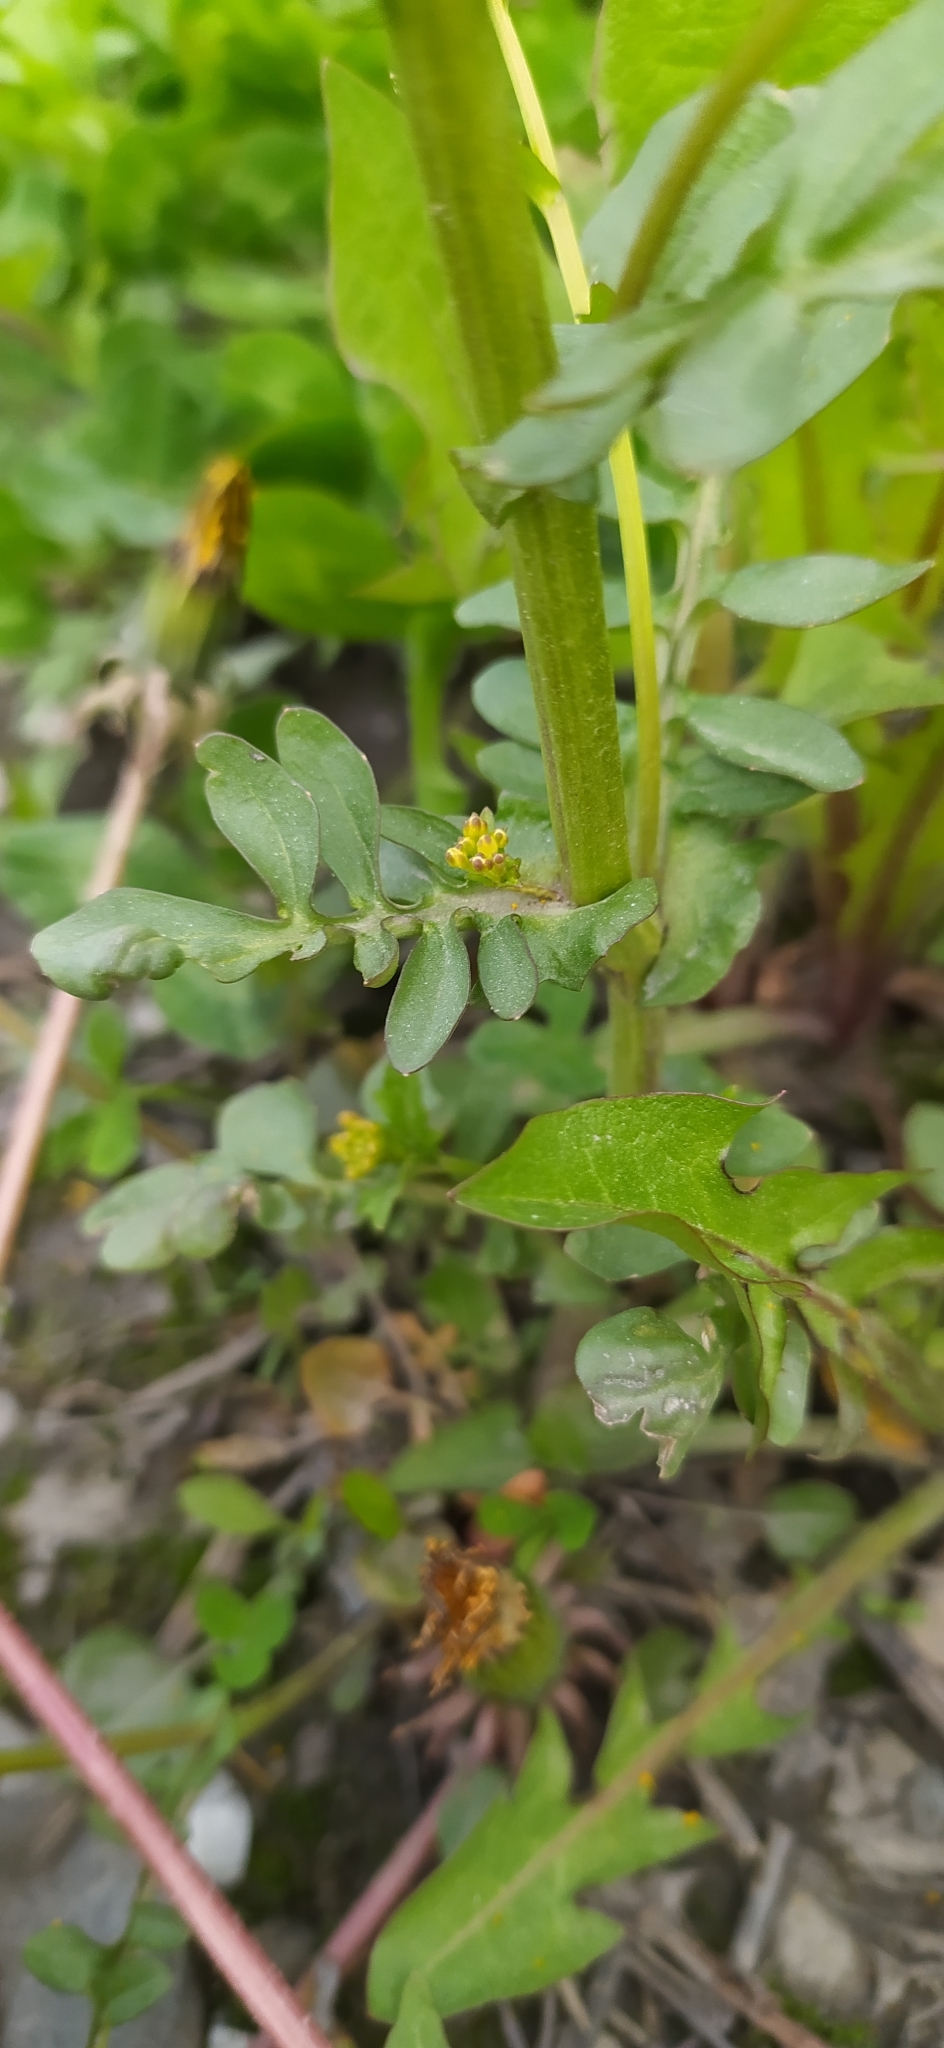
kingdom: Plantae
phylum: Tracheophyta
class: Magnoliopsida
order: Brassicales
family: Brassicaceae
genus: Barbarea
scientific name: Barbarea vulgaris
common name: Cressy-greens
